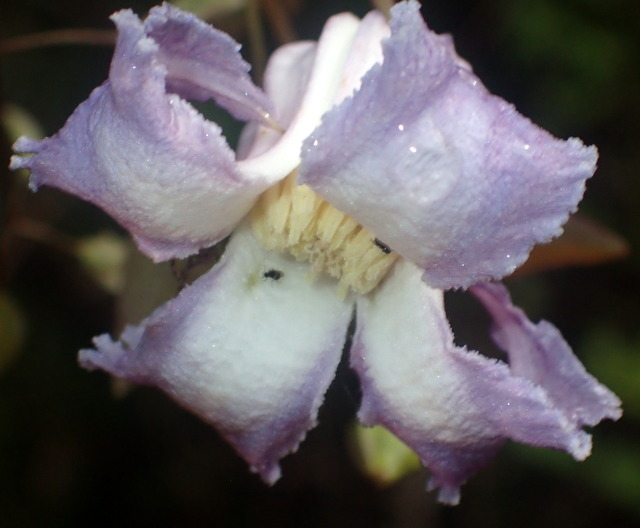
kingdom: Plantae
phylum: Tracheophyta
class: Magnoliopsida
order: Ranunculales
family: Ranunculaceae
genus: Clematis
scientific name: Clematis crispa
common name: Curly clematis
